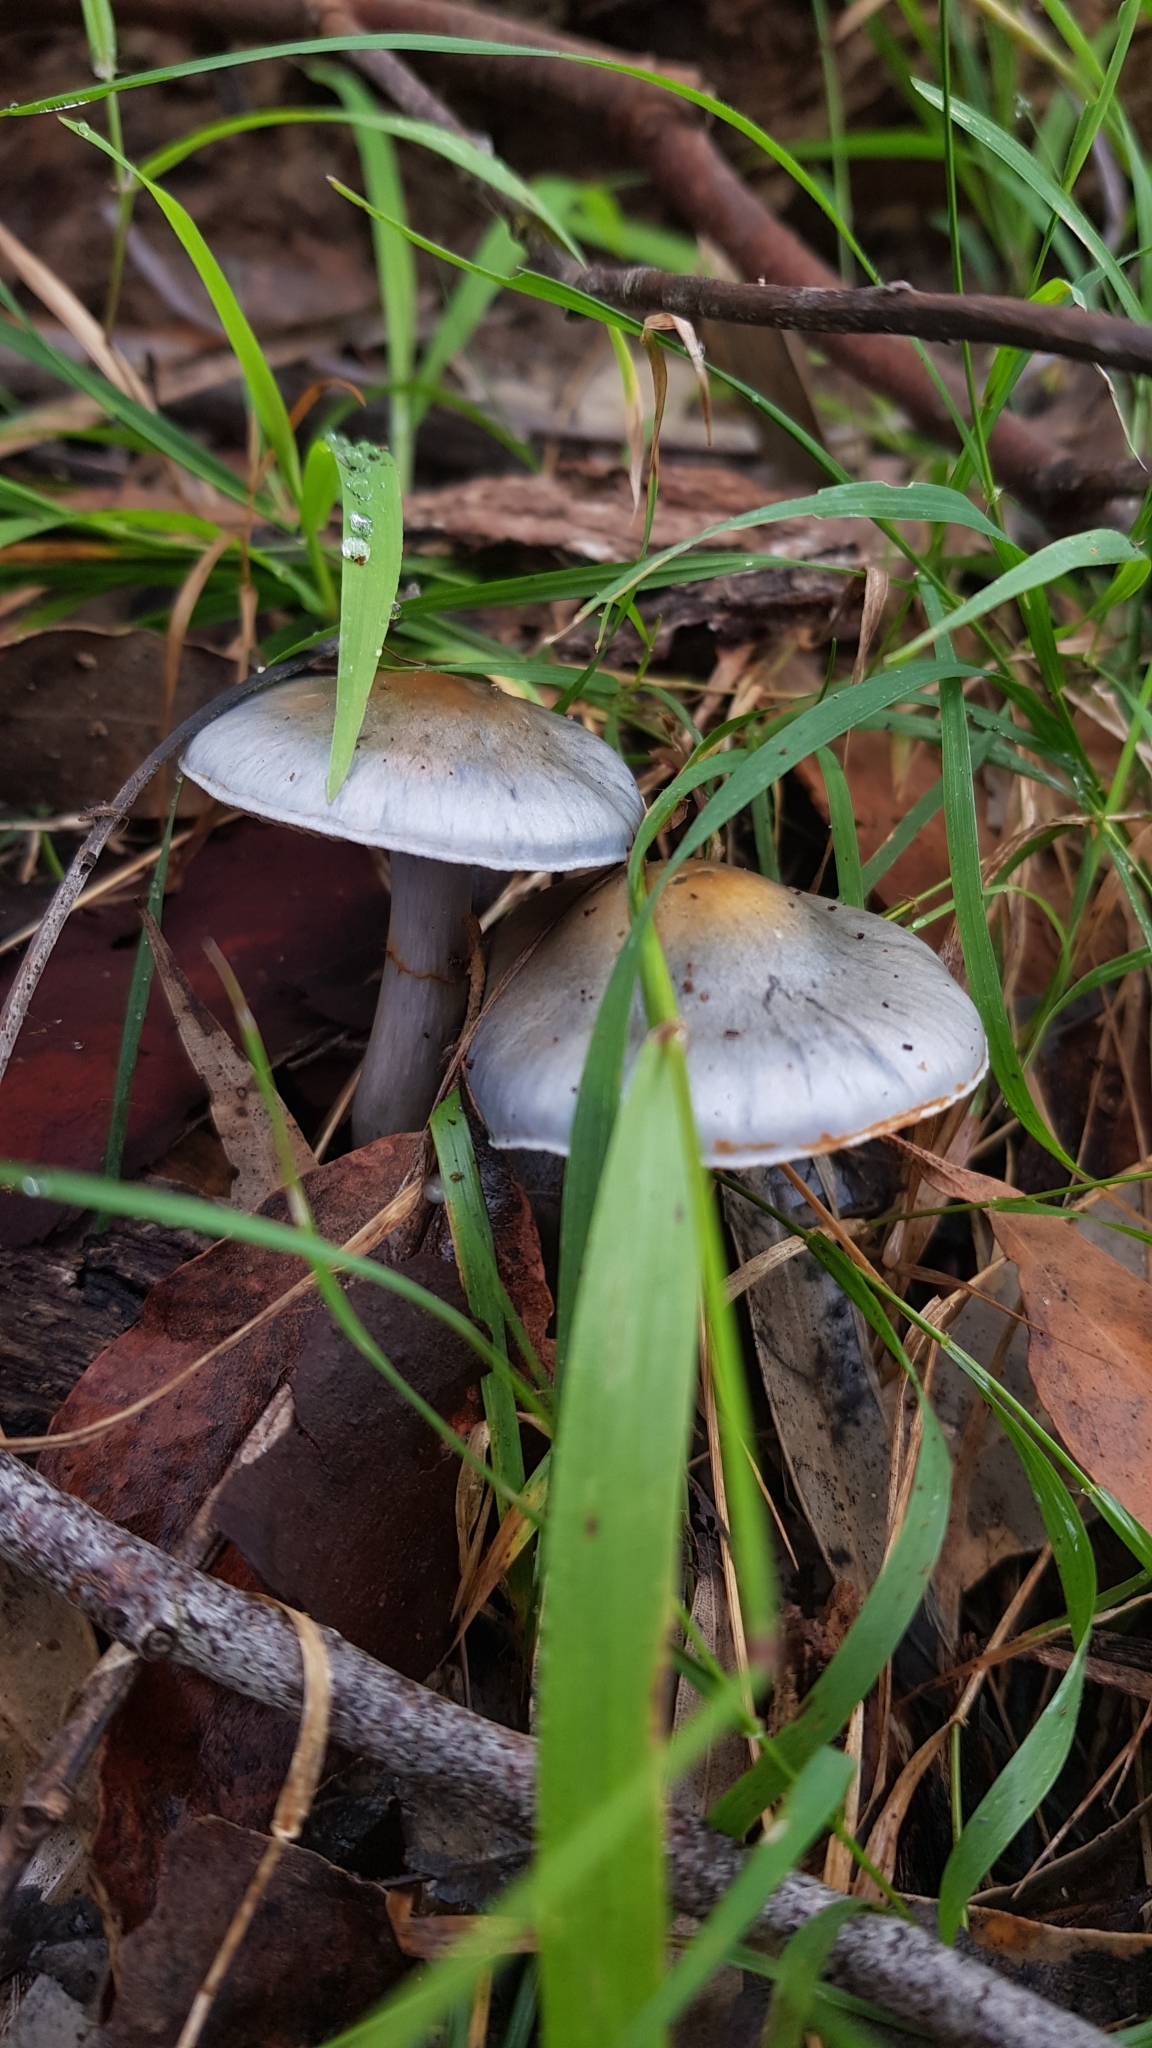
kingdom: Fungi
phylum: Basidiomycota
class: Agaricomycetes
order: Agaricales
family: Cortinariaceae
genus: Cortinarius
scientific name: Cortinarius rotundisporus
